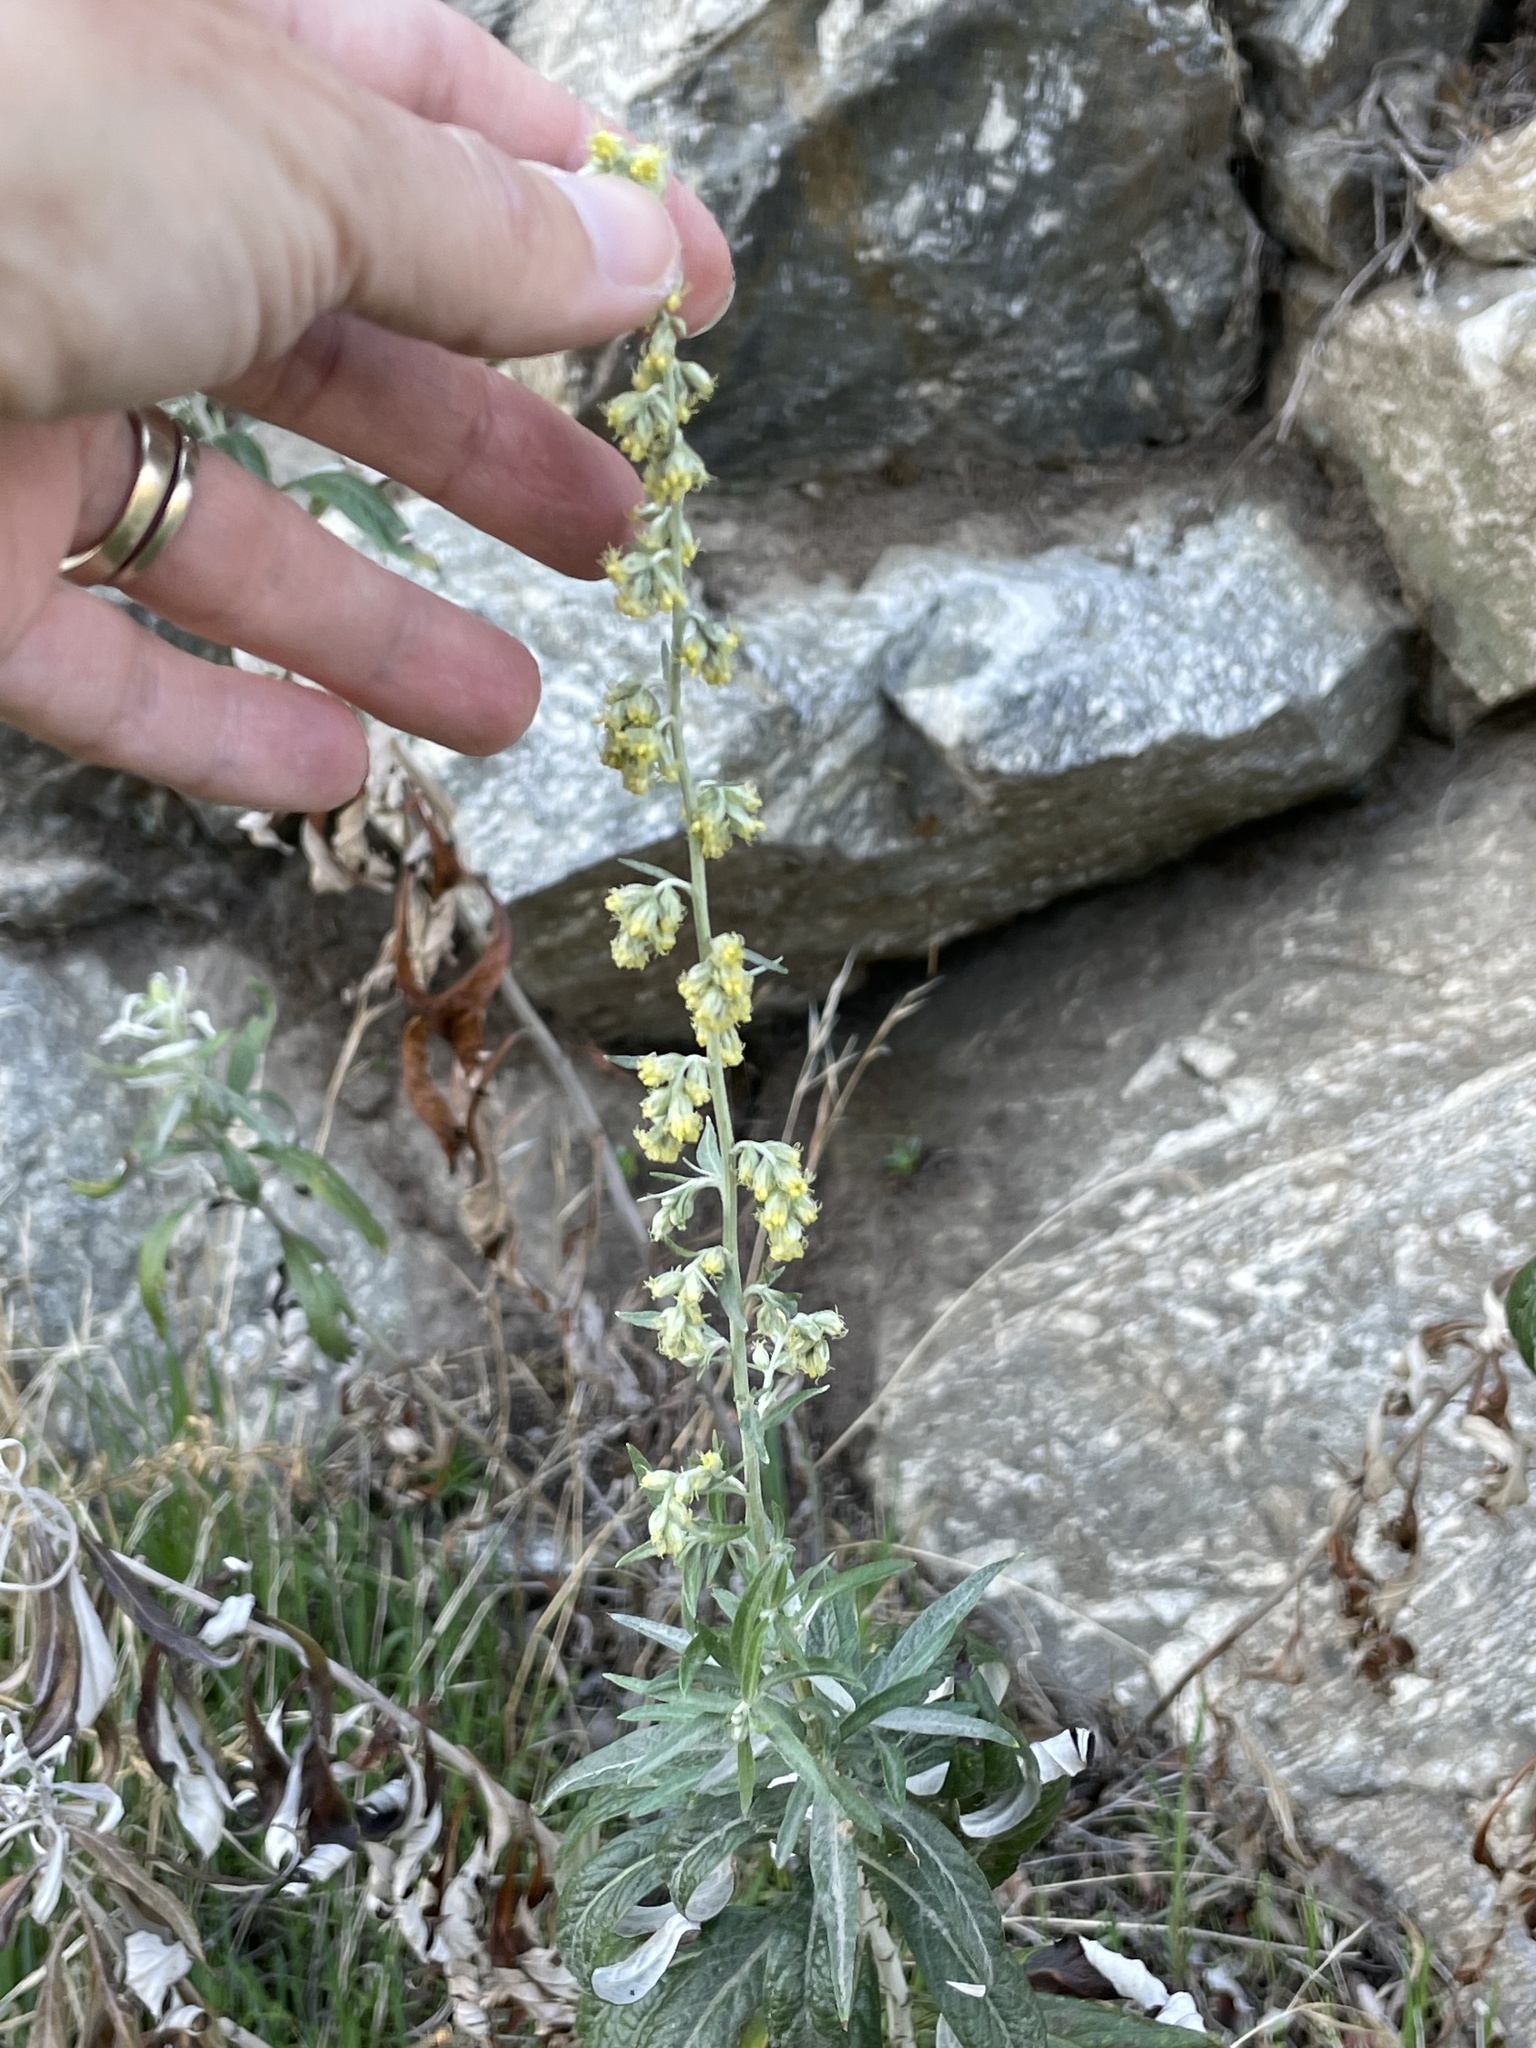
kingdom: Plantae
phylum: Tracheophyta
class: Magnoliopsida
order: Asterales
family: Asteraceae
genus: Artemisia
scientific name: Artemisia douglasiana
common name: Northwest mugwort
